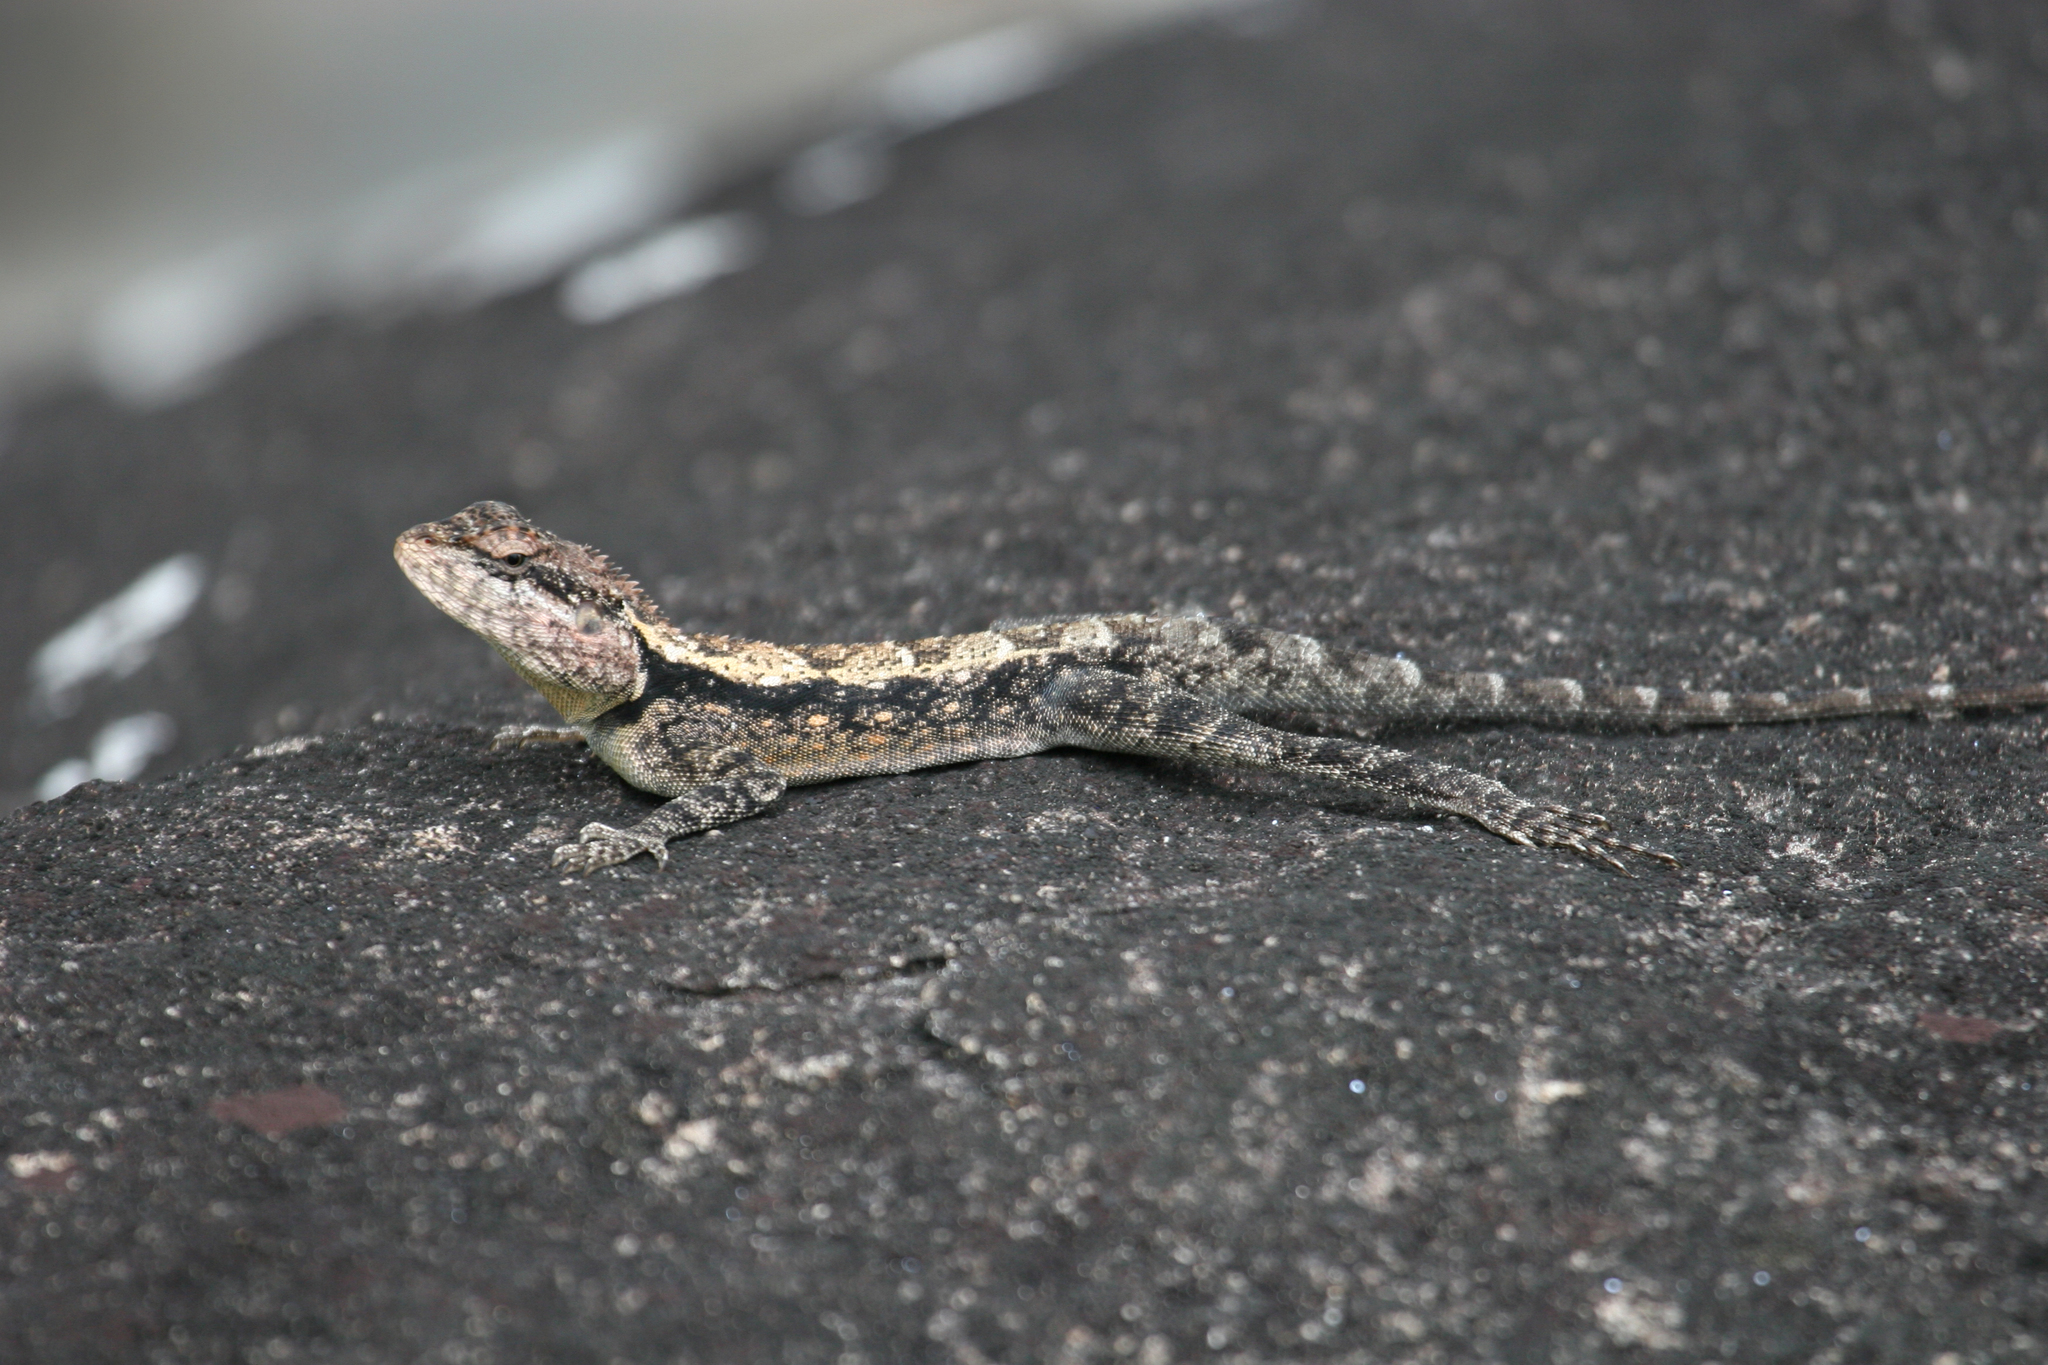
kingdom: Animalia
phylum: Chordata
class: Squamata
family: Agamidae
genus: Psammophilus
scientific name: Psammophilus dorsalis
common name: South indian rock agama
